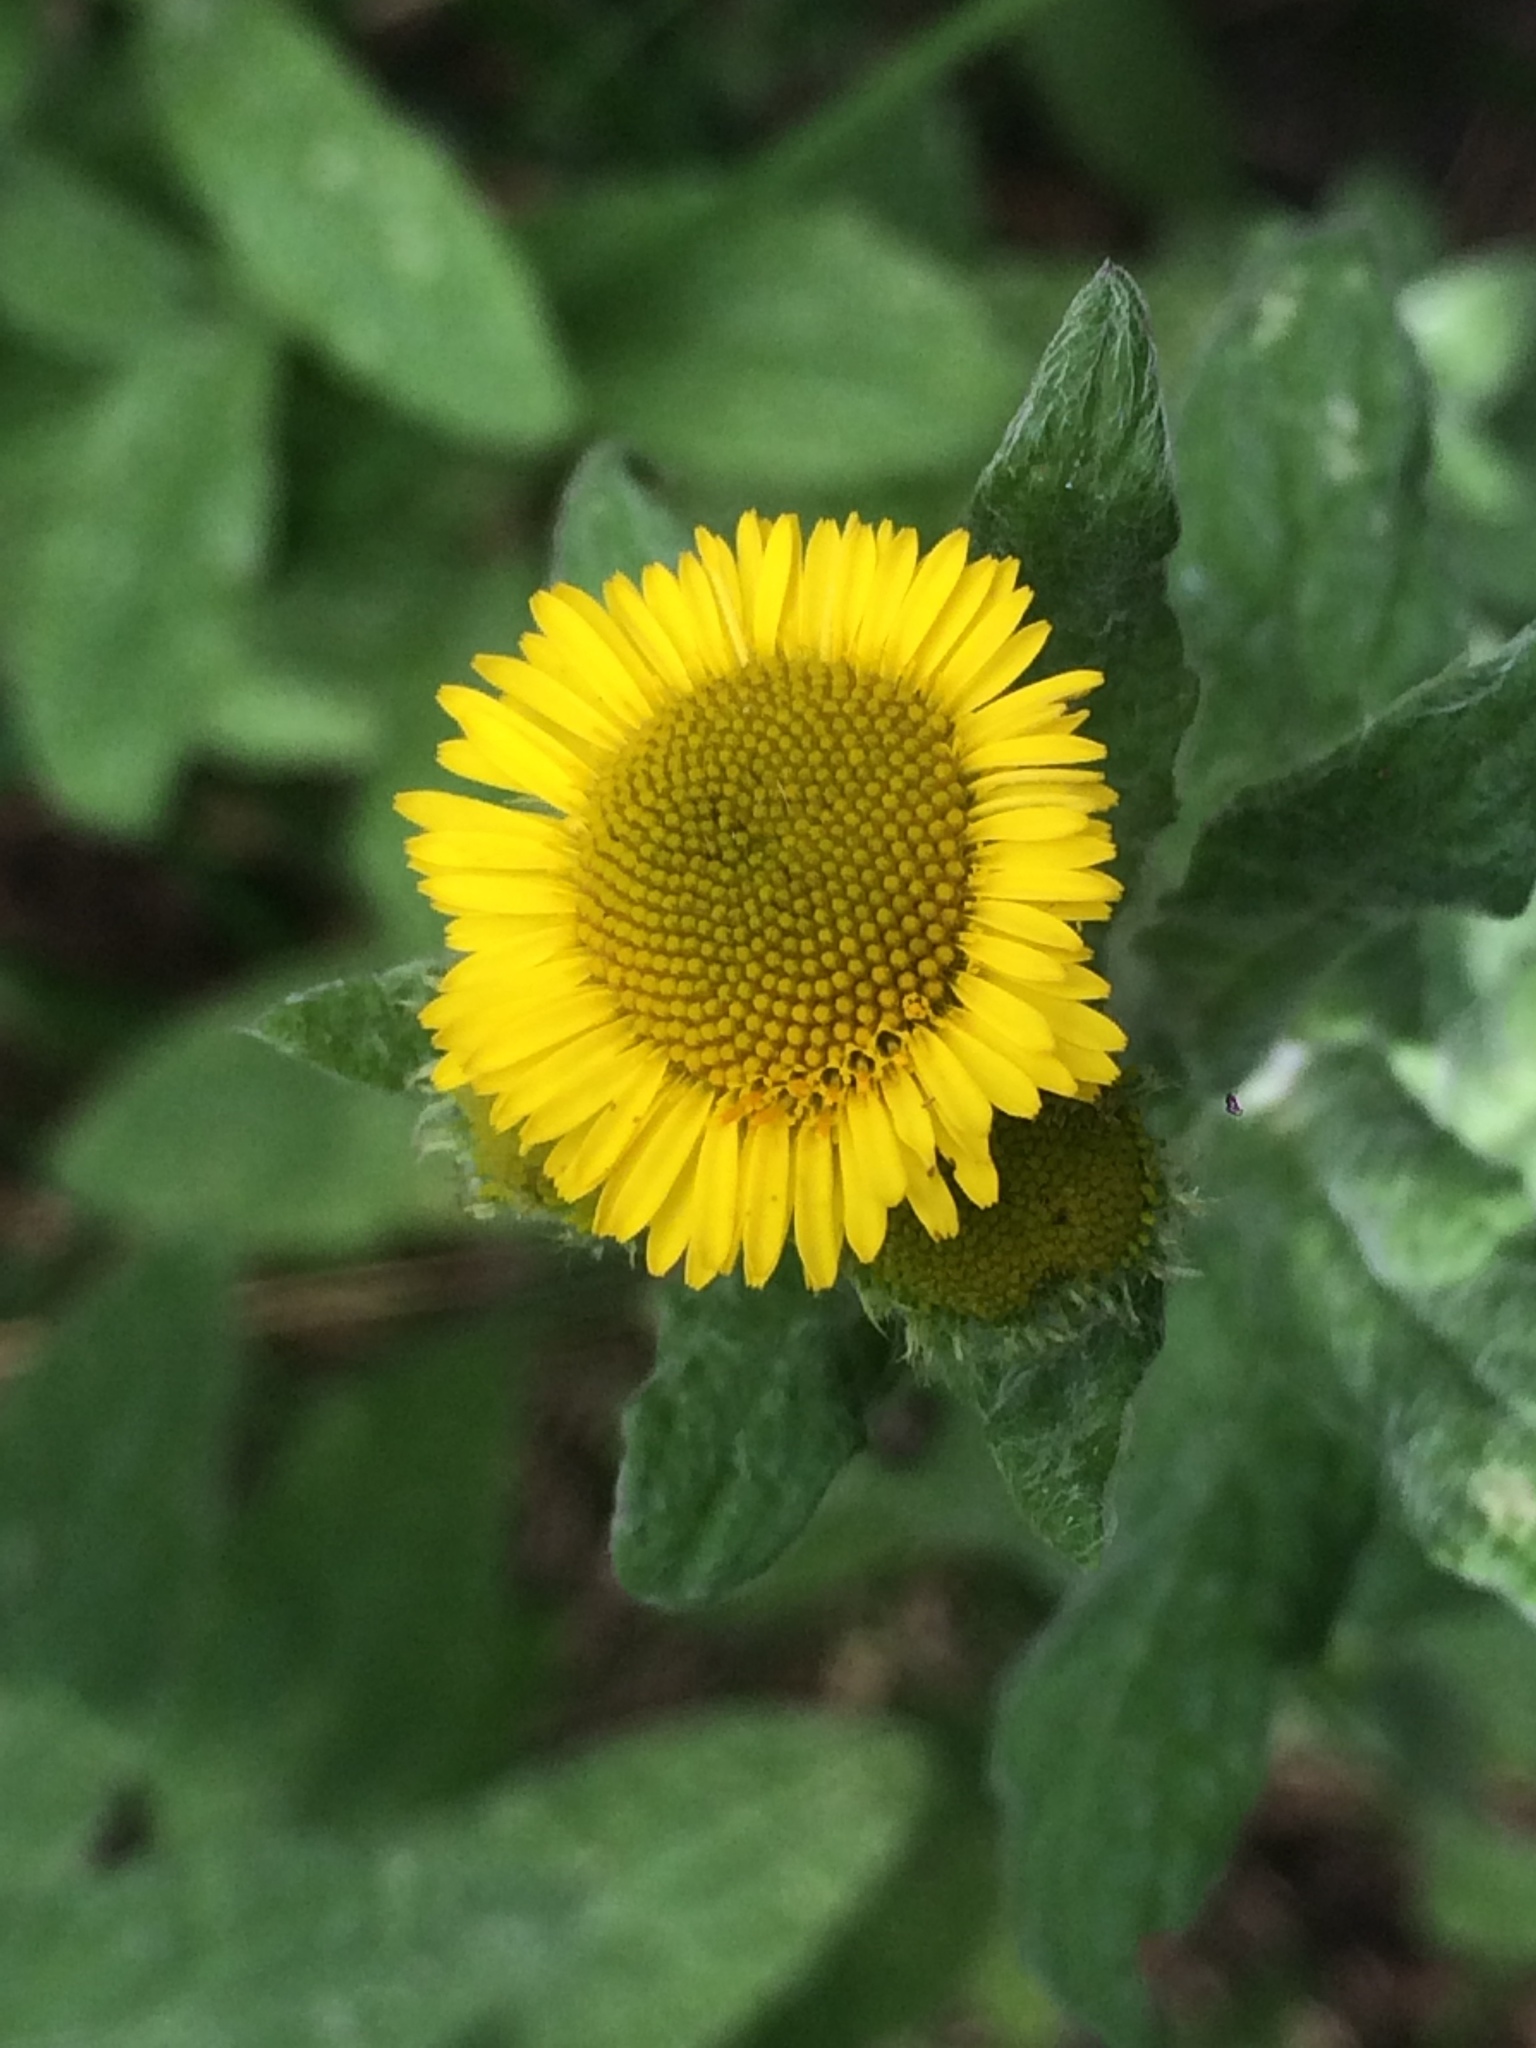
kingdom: Plantae
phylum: Tracheophyta
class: Magnoliopsida
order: Asterales
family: Asteraceae
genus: Pulicaria
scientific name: Pulicaria dysenterica
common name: Common fleabane
